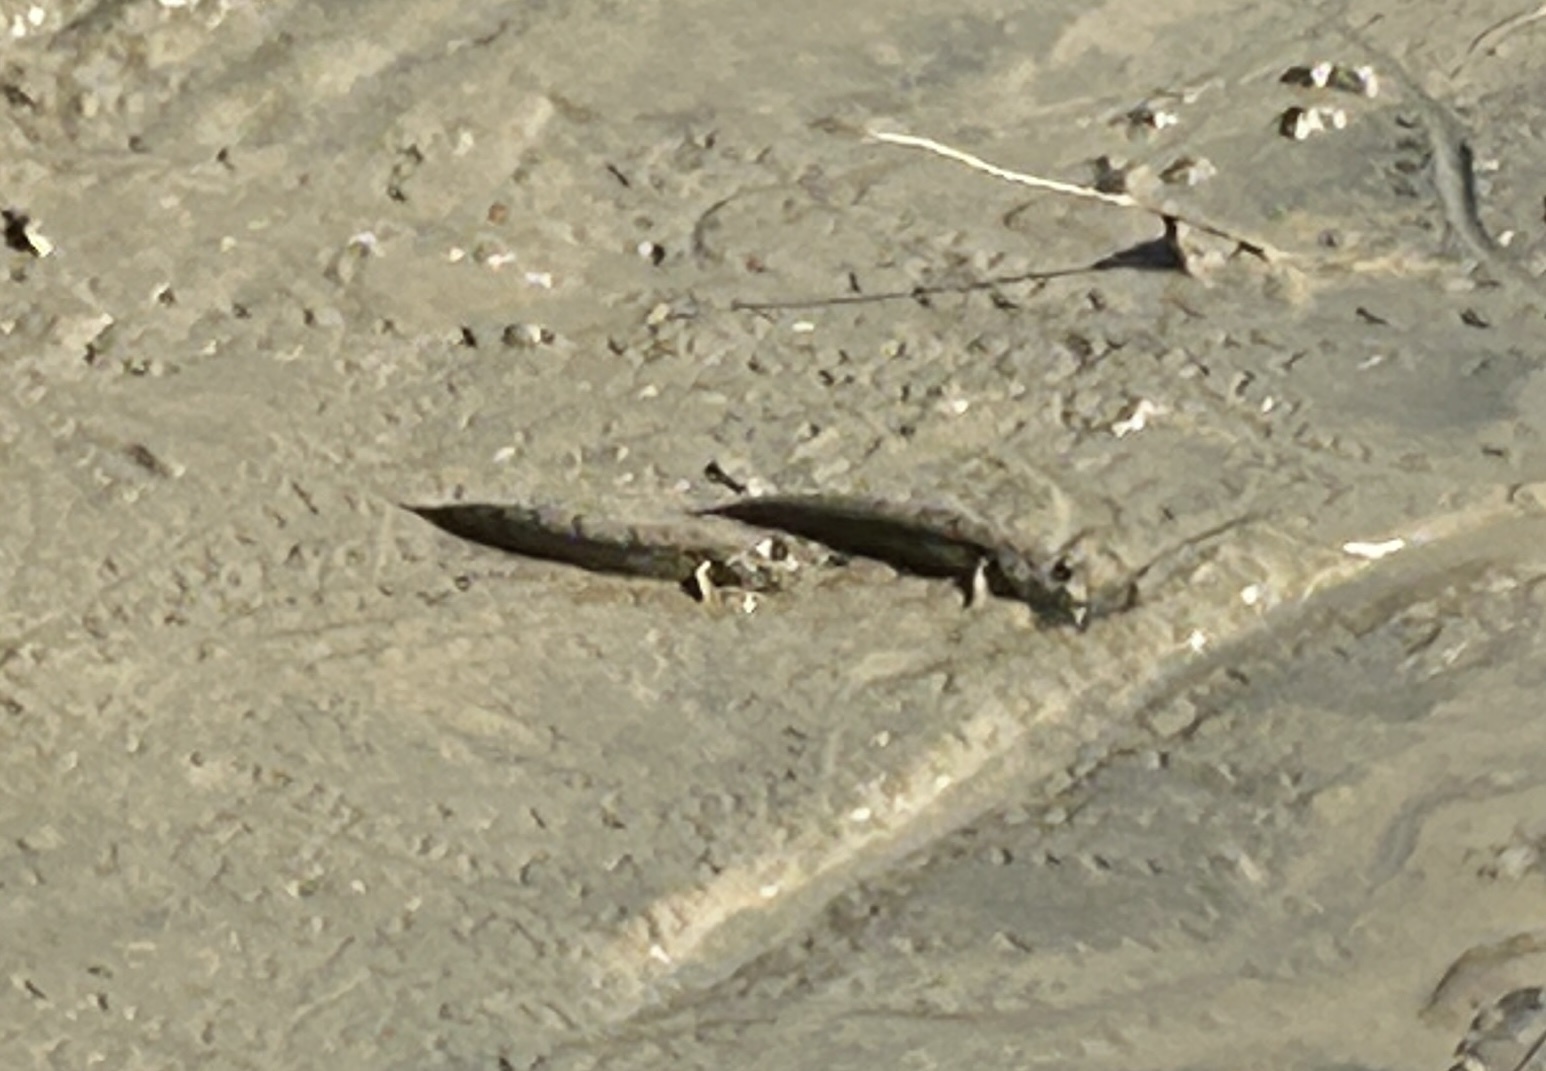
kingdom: Animalia
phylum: Chordata
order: Perciformes
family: Gobiidae
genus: Periophthalmus
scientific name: Periophthalmus argentilineatus
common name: Barred mudskipper
